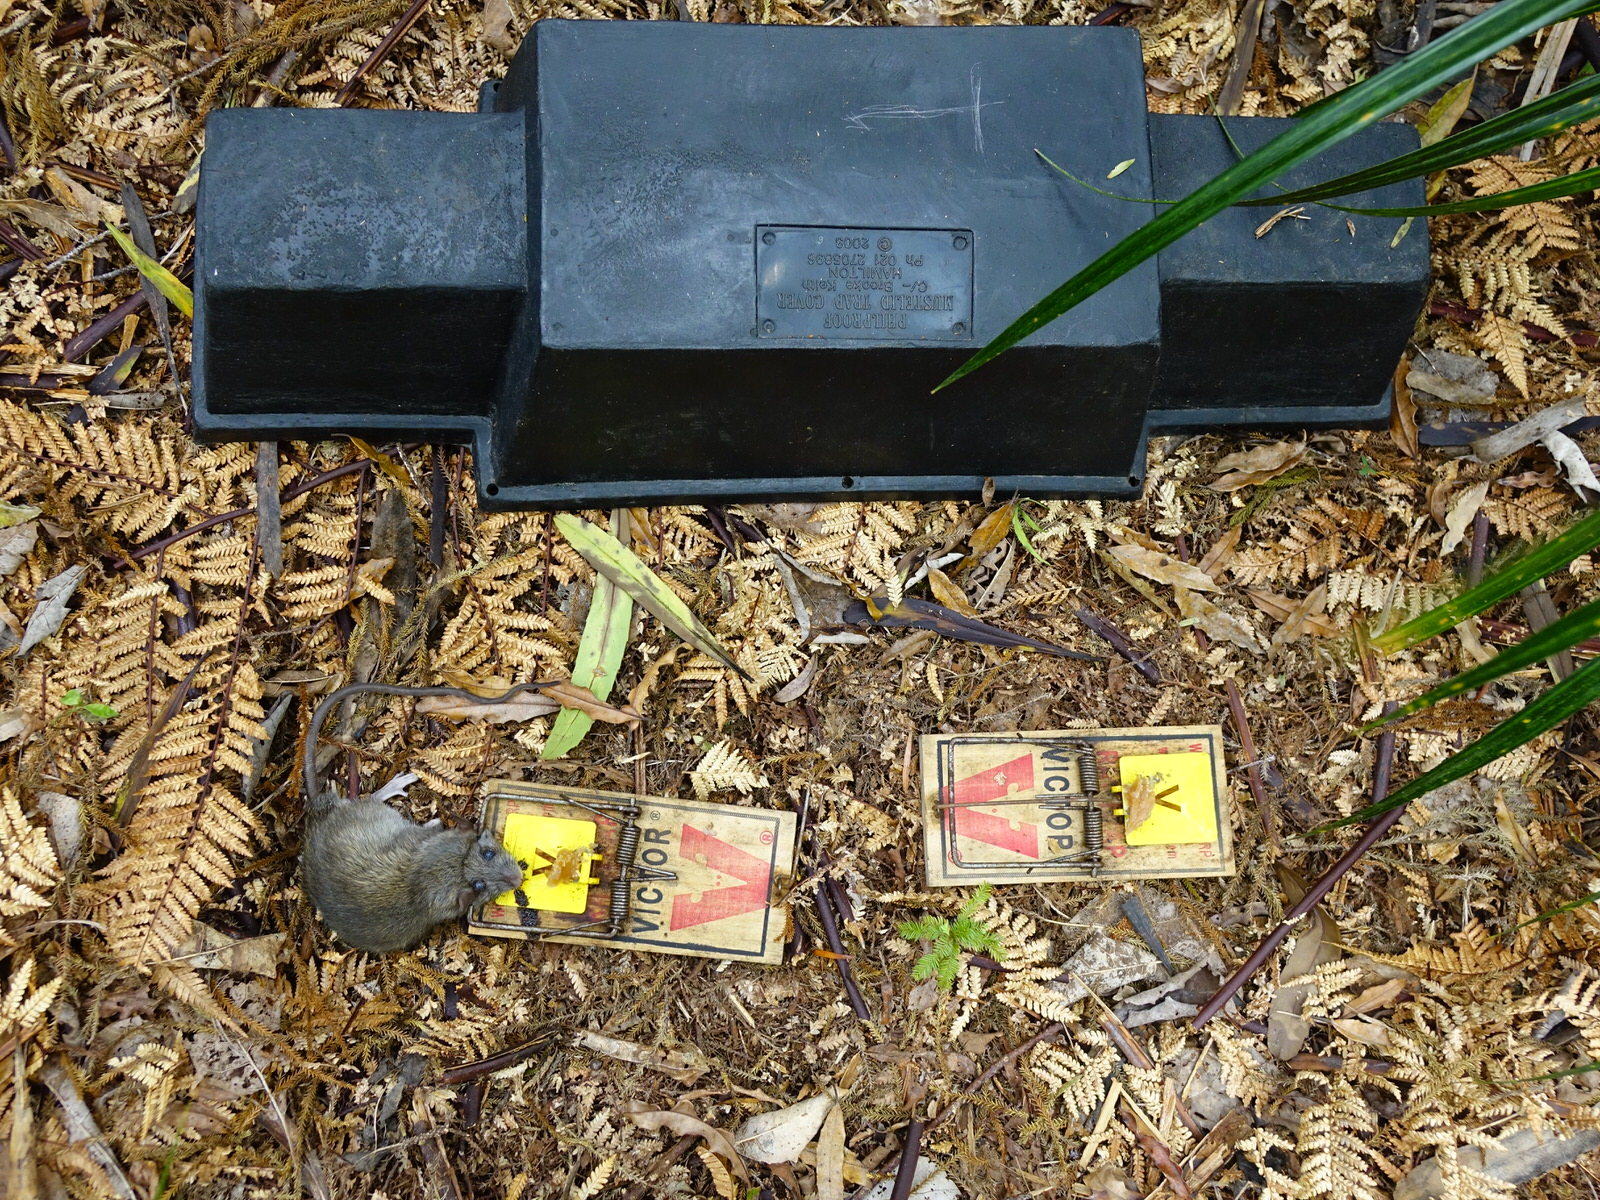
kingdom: Animalia
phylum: Chordata
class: Mammalia
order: Rodentia
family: Muridae
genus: Rattus
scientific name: Rattus rattus
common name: Black rat
